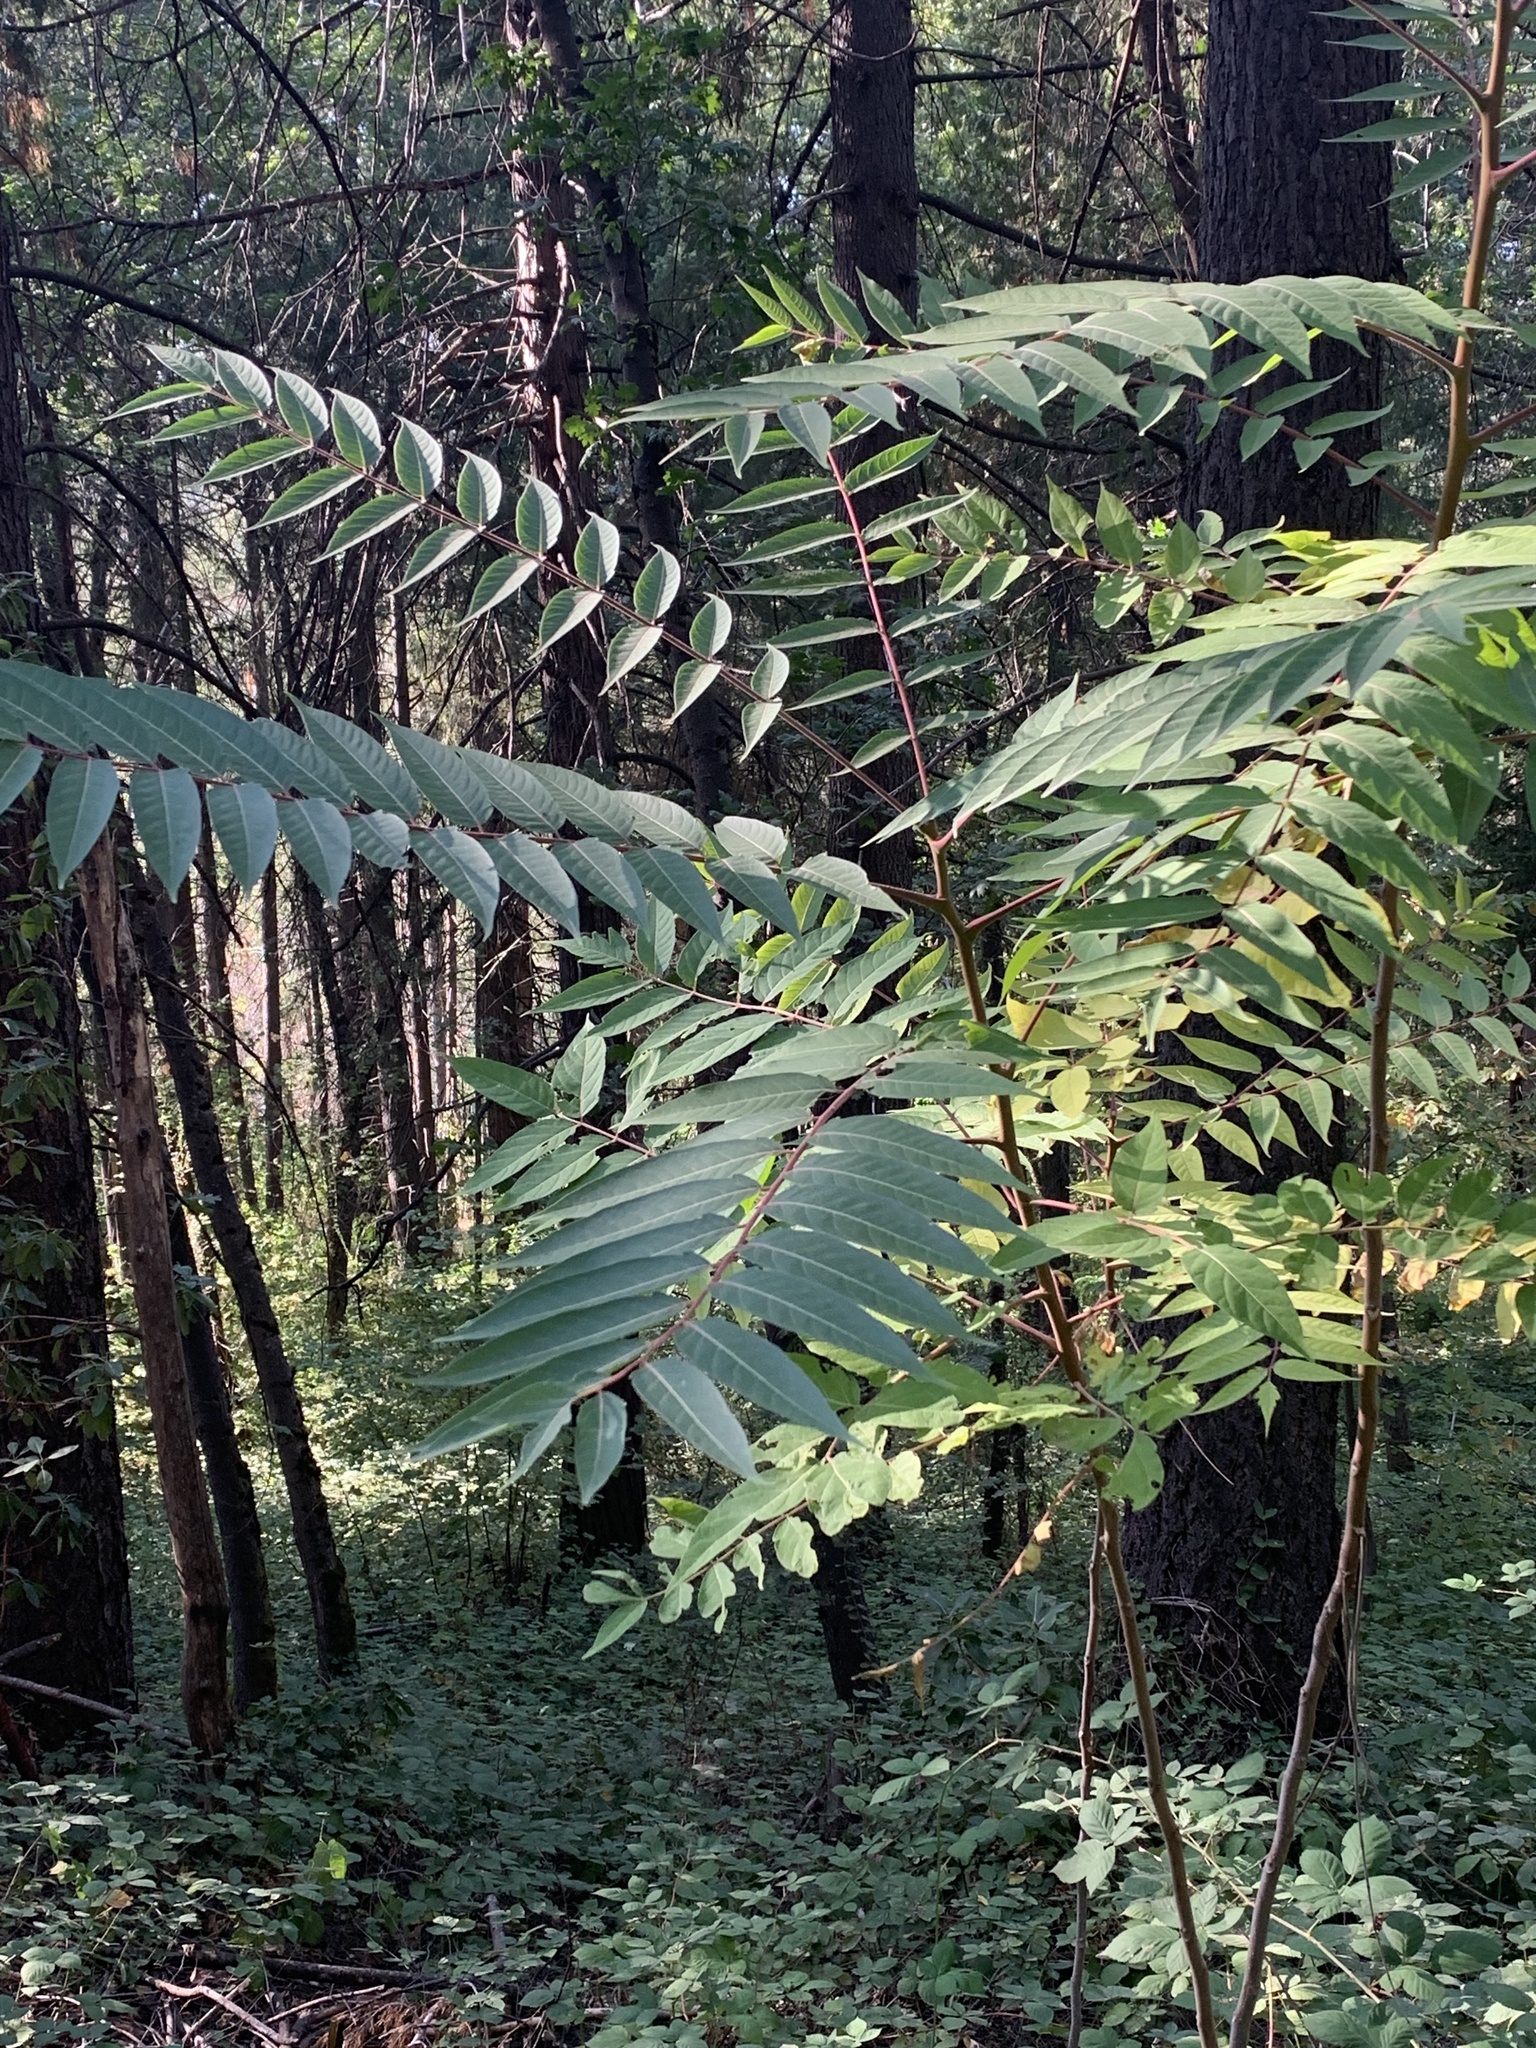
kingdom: Plantae
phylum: Tracheophyta
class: Magnoliopsida
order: Sapindales
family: Simaroubaceae
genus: Ailanthus
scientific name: Ailanthus altissima
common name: Tree-of-heaven
